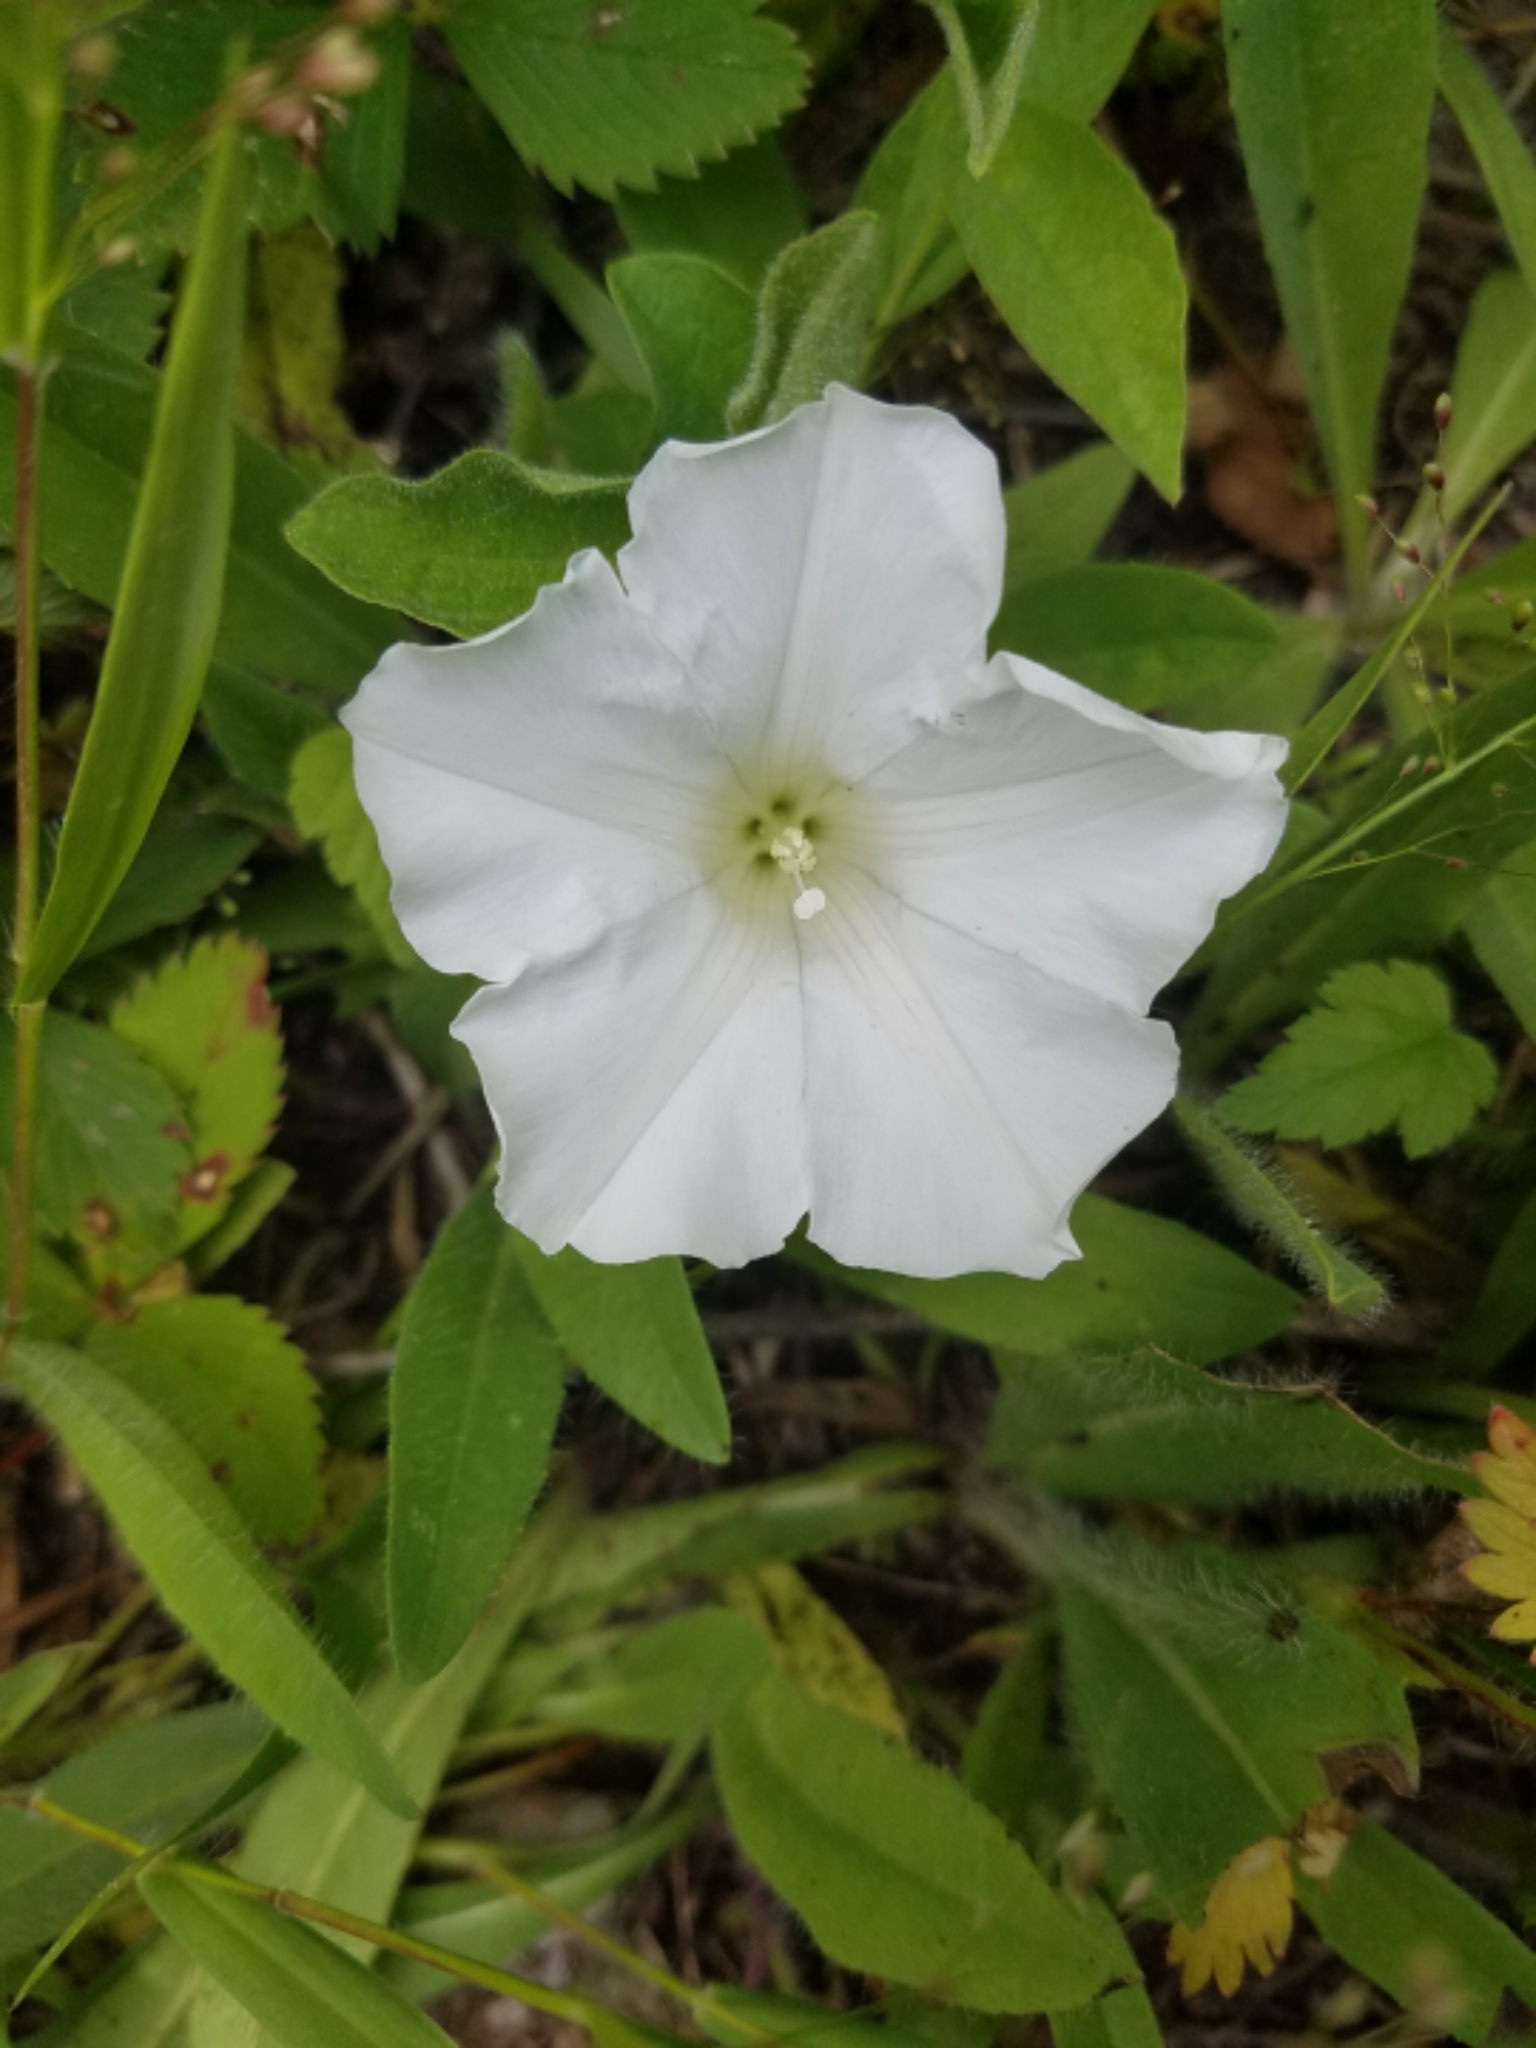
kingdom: Plantae
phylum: Tracheophyta
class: Magnoliopsida
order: Solanales
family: Convolvulaceae
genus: Calystegia
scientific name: Calystegia spithamaea
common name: Dwarf bindweed
